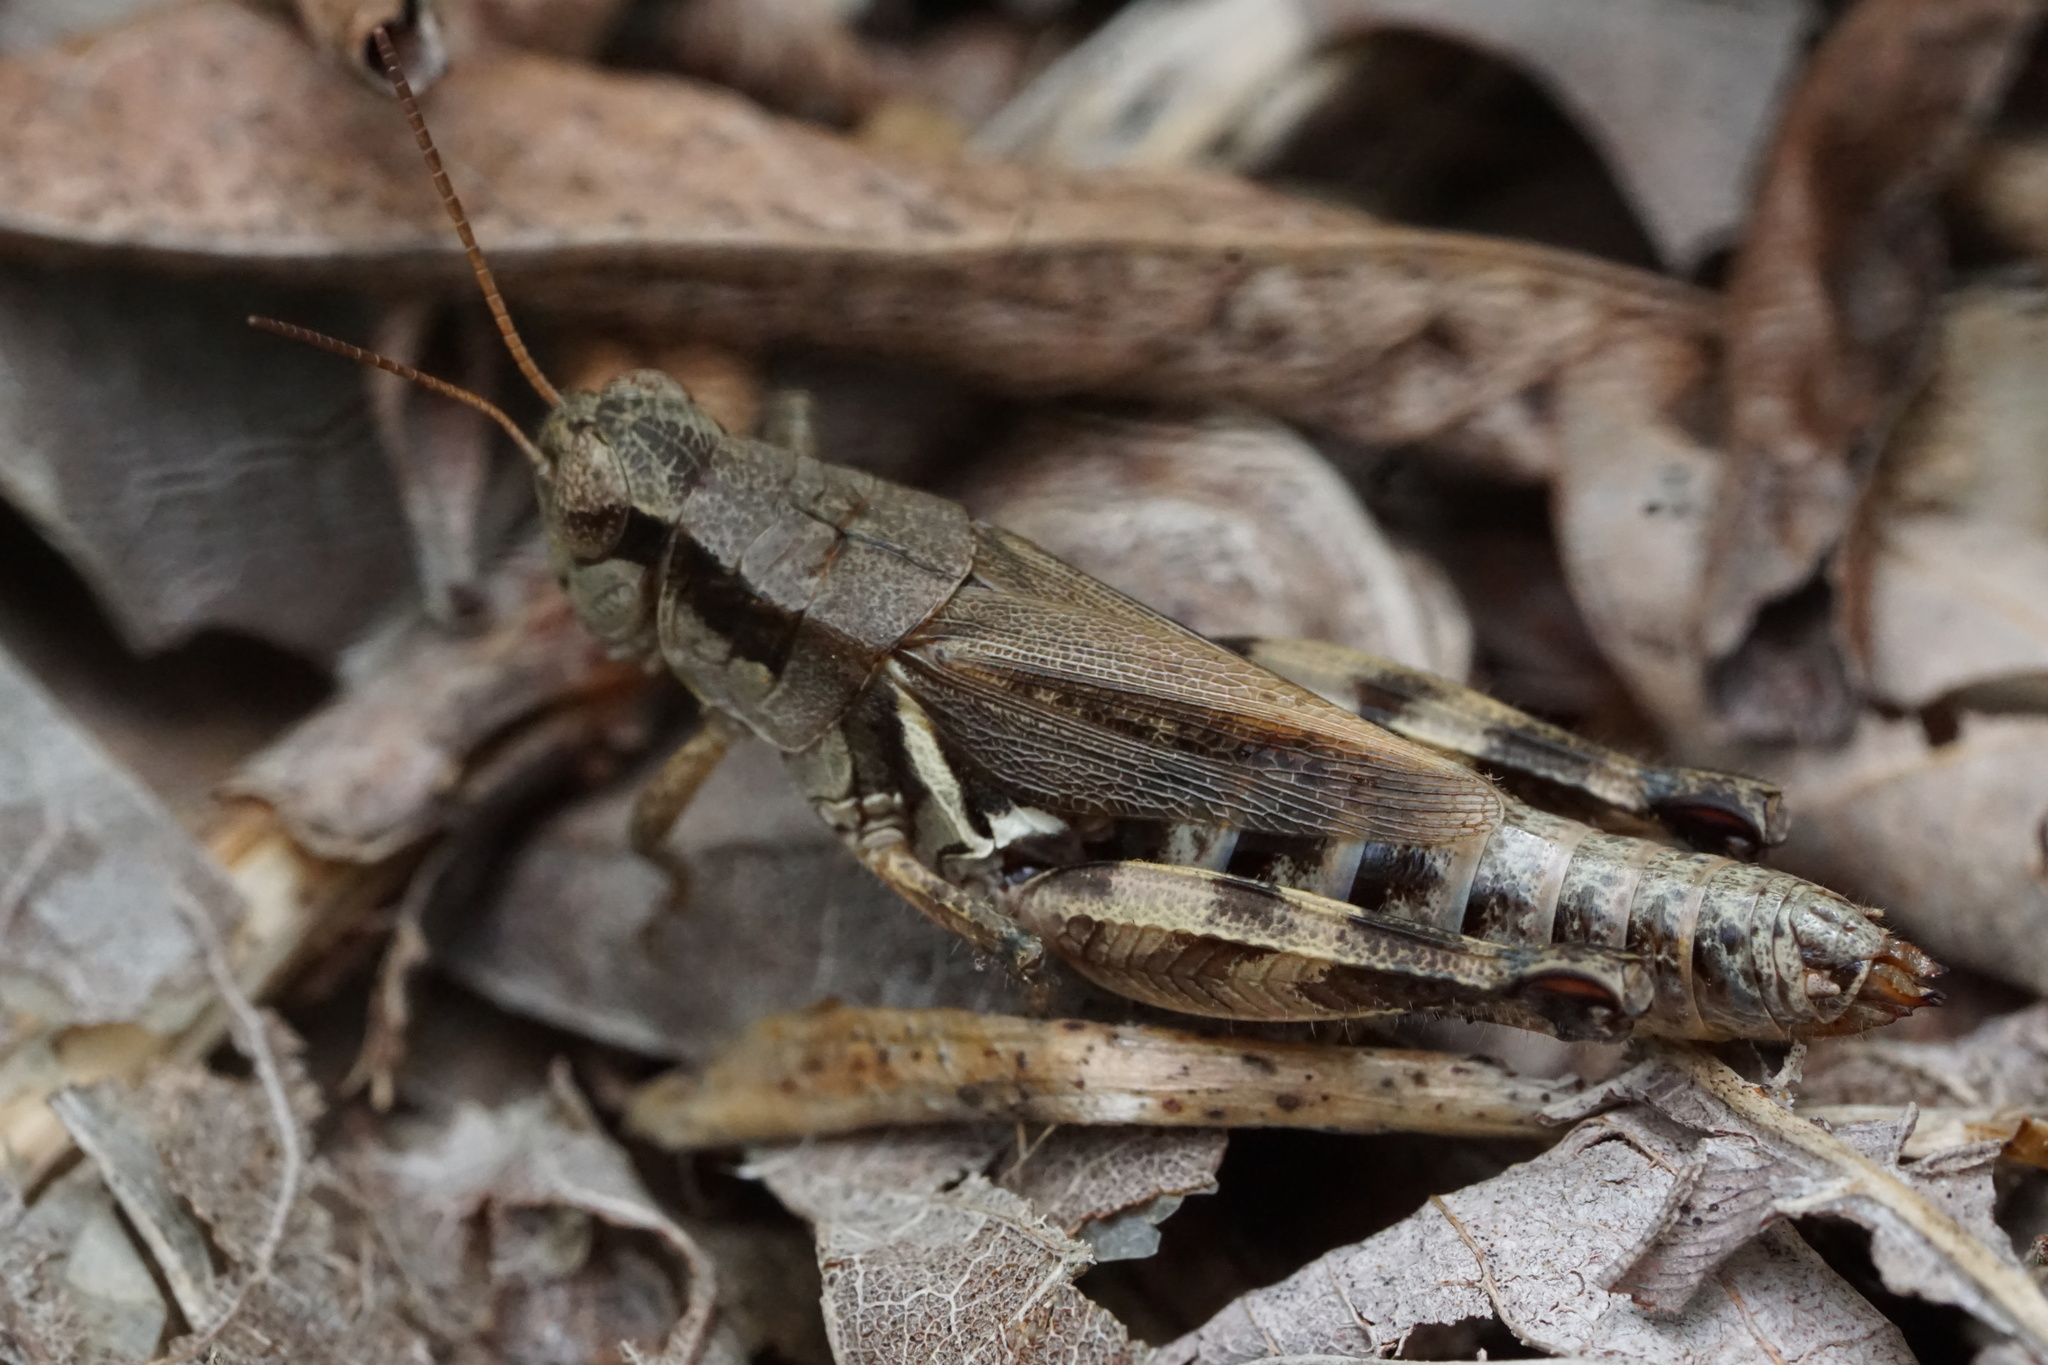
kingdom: Animalia
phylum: Arthropoda
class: Insecta
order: Orthoptera
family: Acrididae
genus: Melanoplus
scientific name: Melanoplus fasciatus
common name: Huckleberry locust
